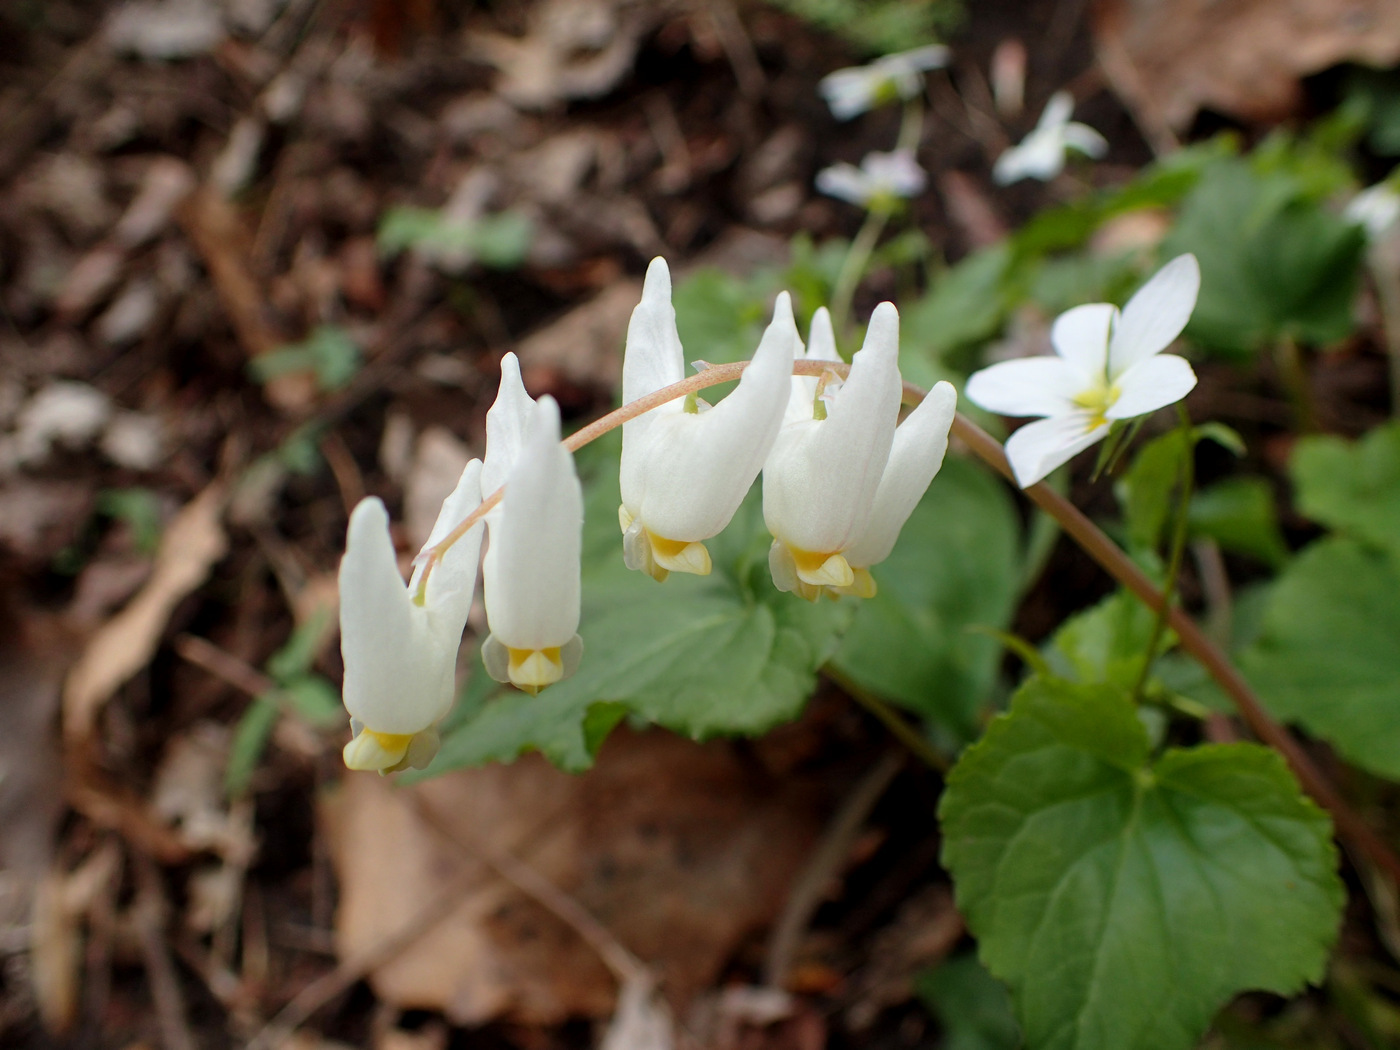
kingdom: Plantae
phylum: Tracheophyta
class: Magnoliopsida
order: Ranunculales
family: Papaveraceae
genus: Dicentra
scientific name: Dicentra cucullaria
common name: Dutchman's breeches
